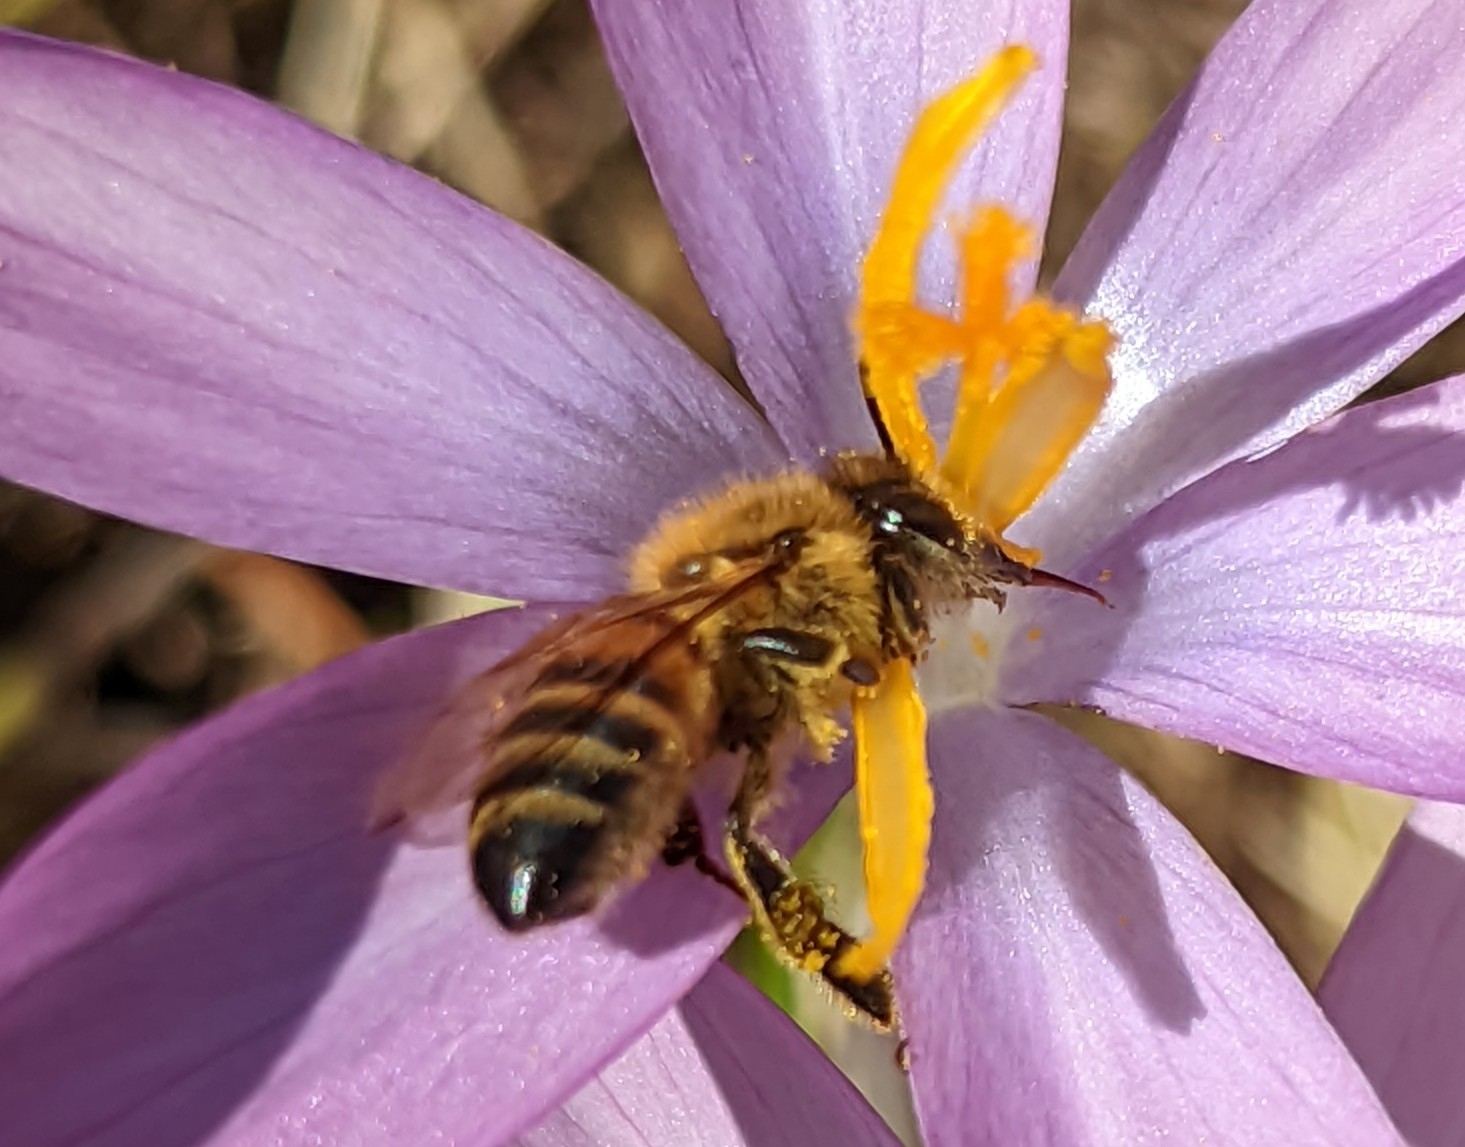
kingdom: Animalia
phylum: Arthropoda
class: Insecta
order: Hymenoptera
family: Apidae
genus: Apis
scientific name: Apis mellifera
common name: Honey bee
